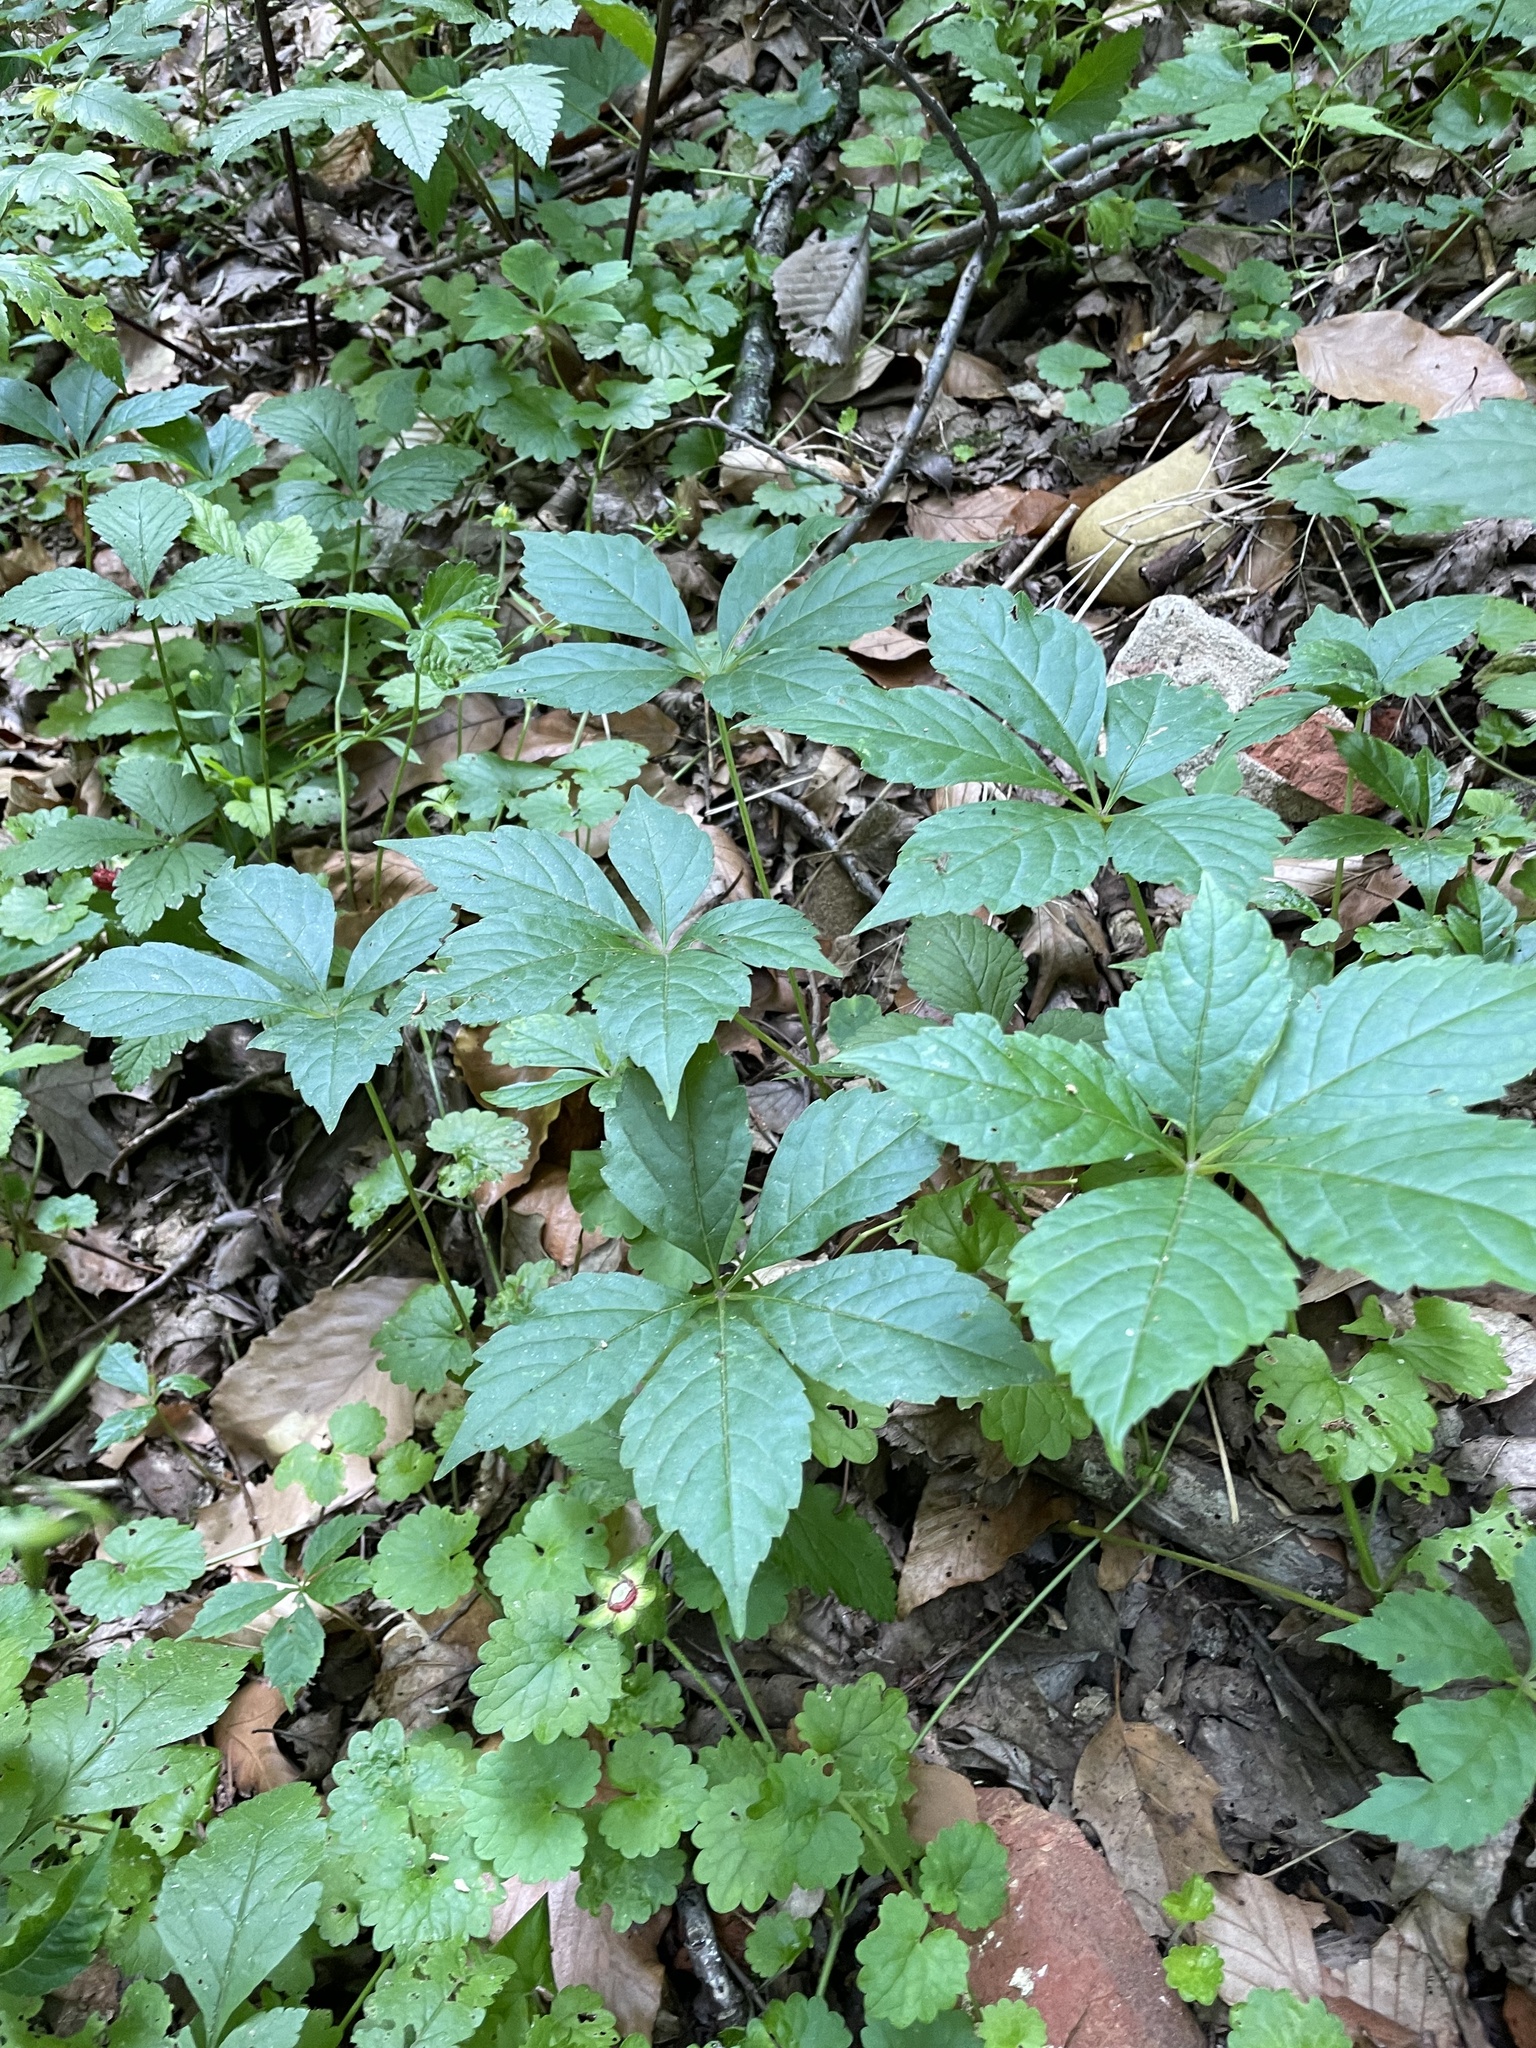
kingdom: Plantae
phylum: Tracheophyta
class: Magnoliopsida
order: Vitales
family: Vitaceae
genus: Parthenocissus
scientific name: Parthenocissus quinquefolia
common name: Virginia-creeper
